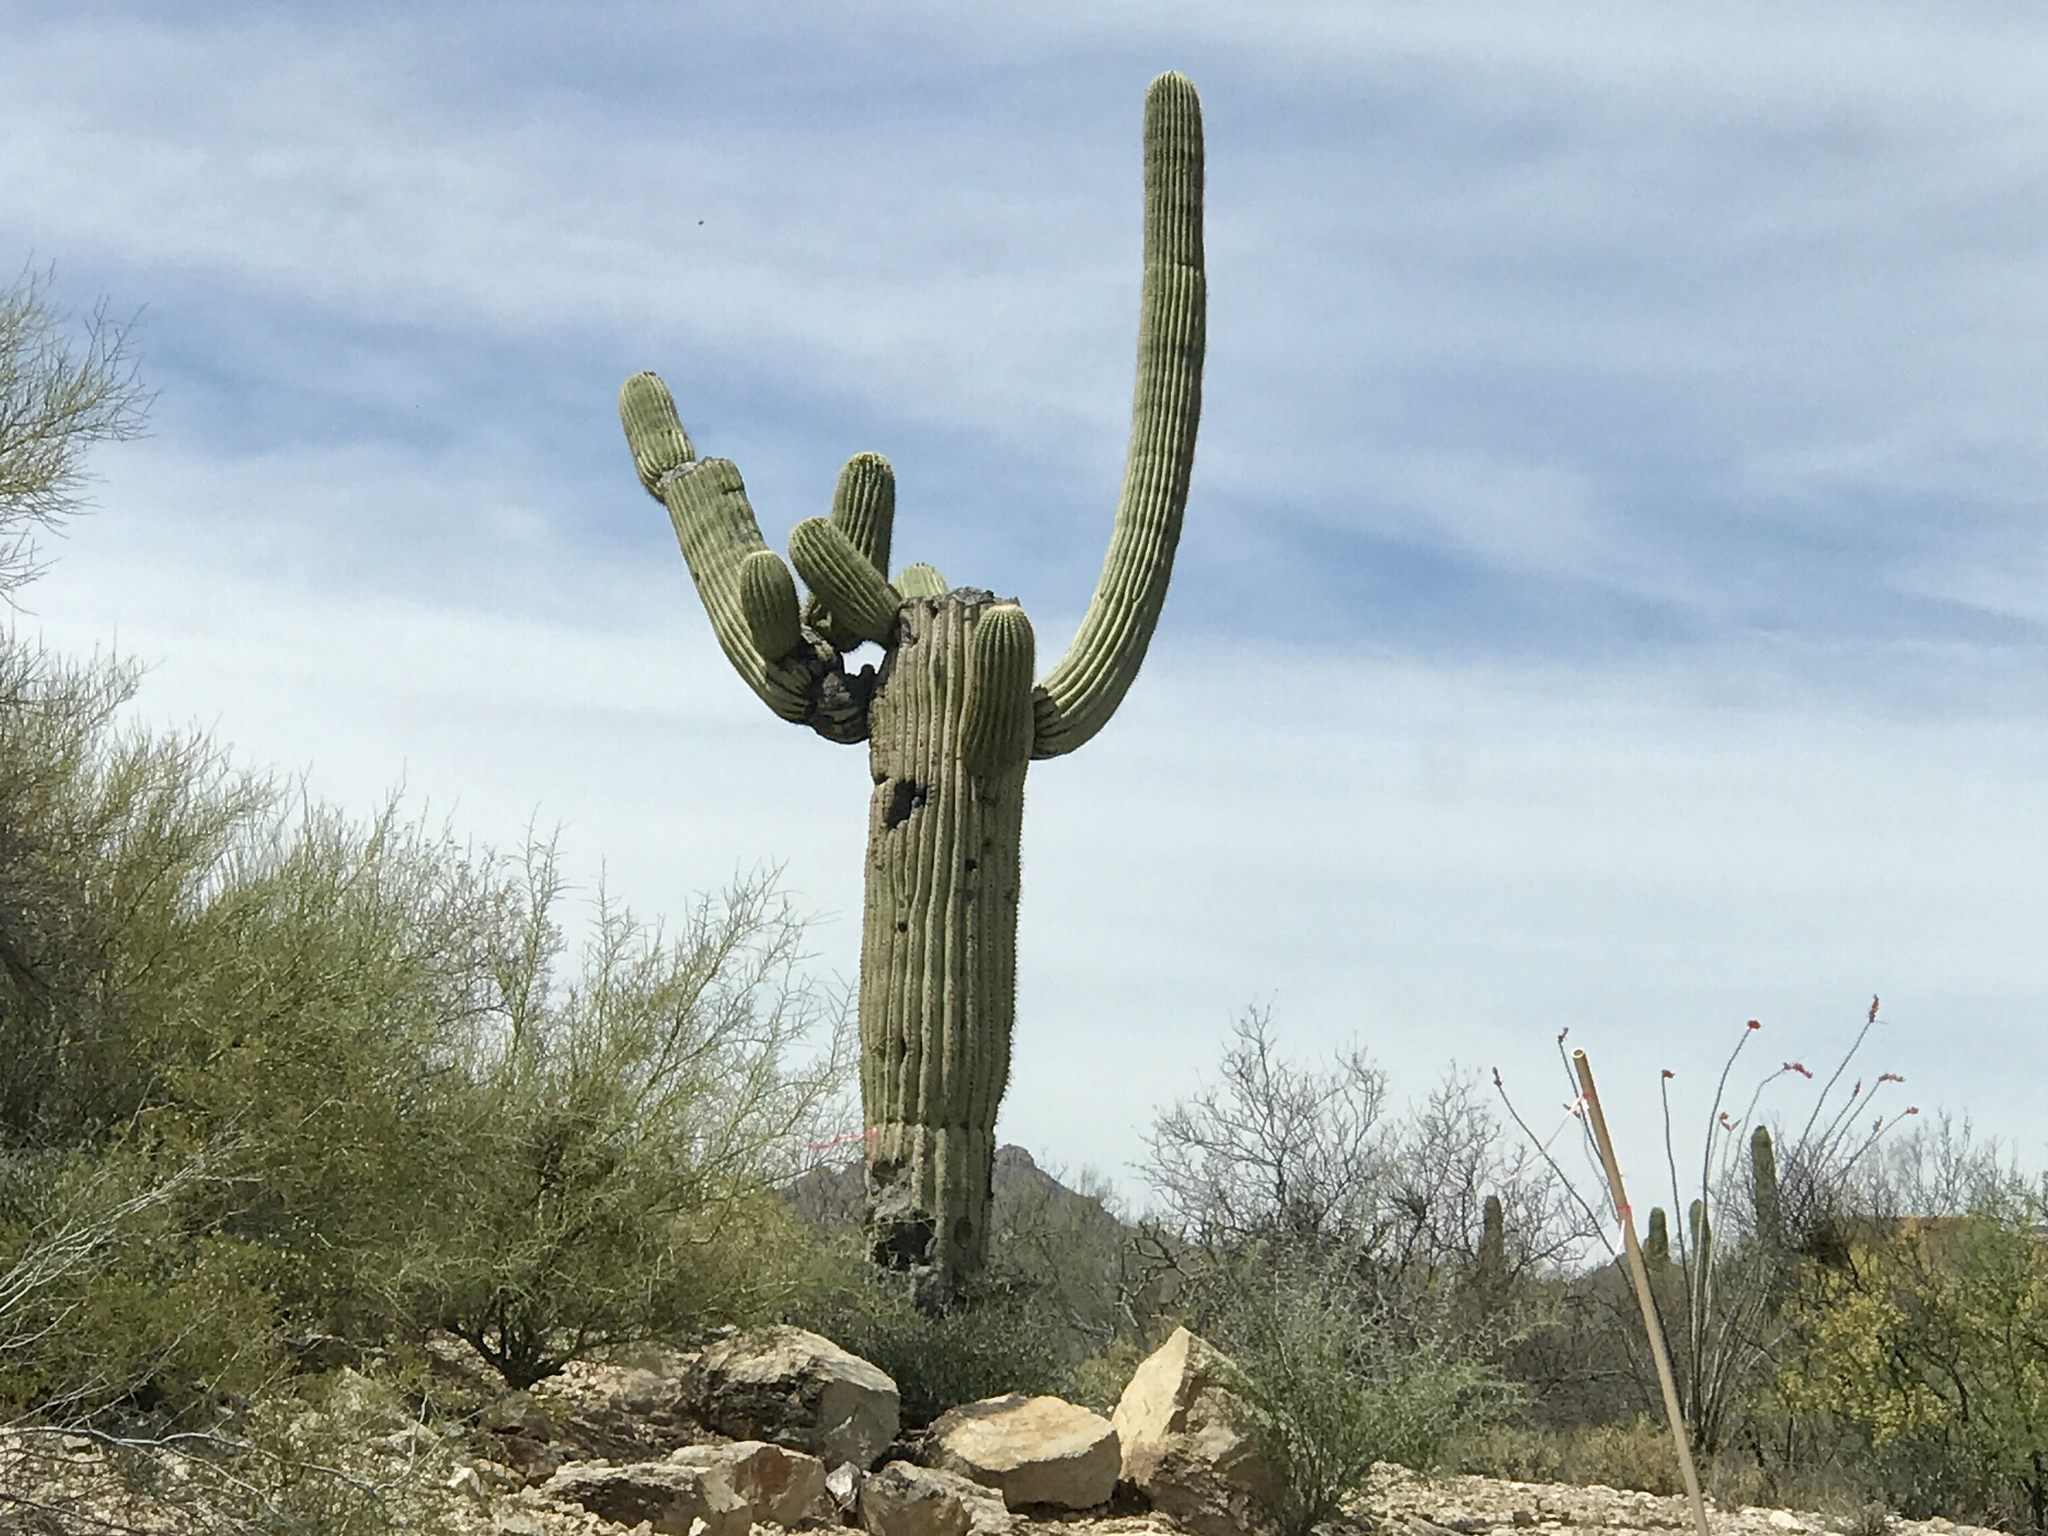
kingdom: Plantae
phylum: Tracheophyta
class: Magnoliopsida
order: Caryophyllales
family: Cactaceae
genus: Carnegiea
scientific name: Carnegiea gigantea
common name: Saguaro
